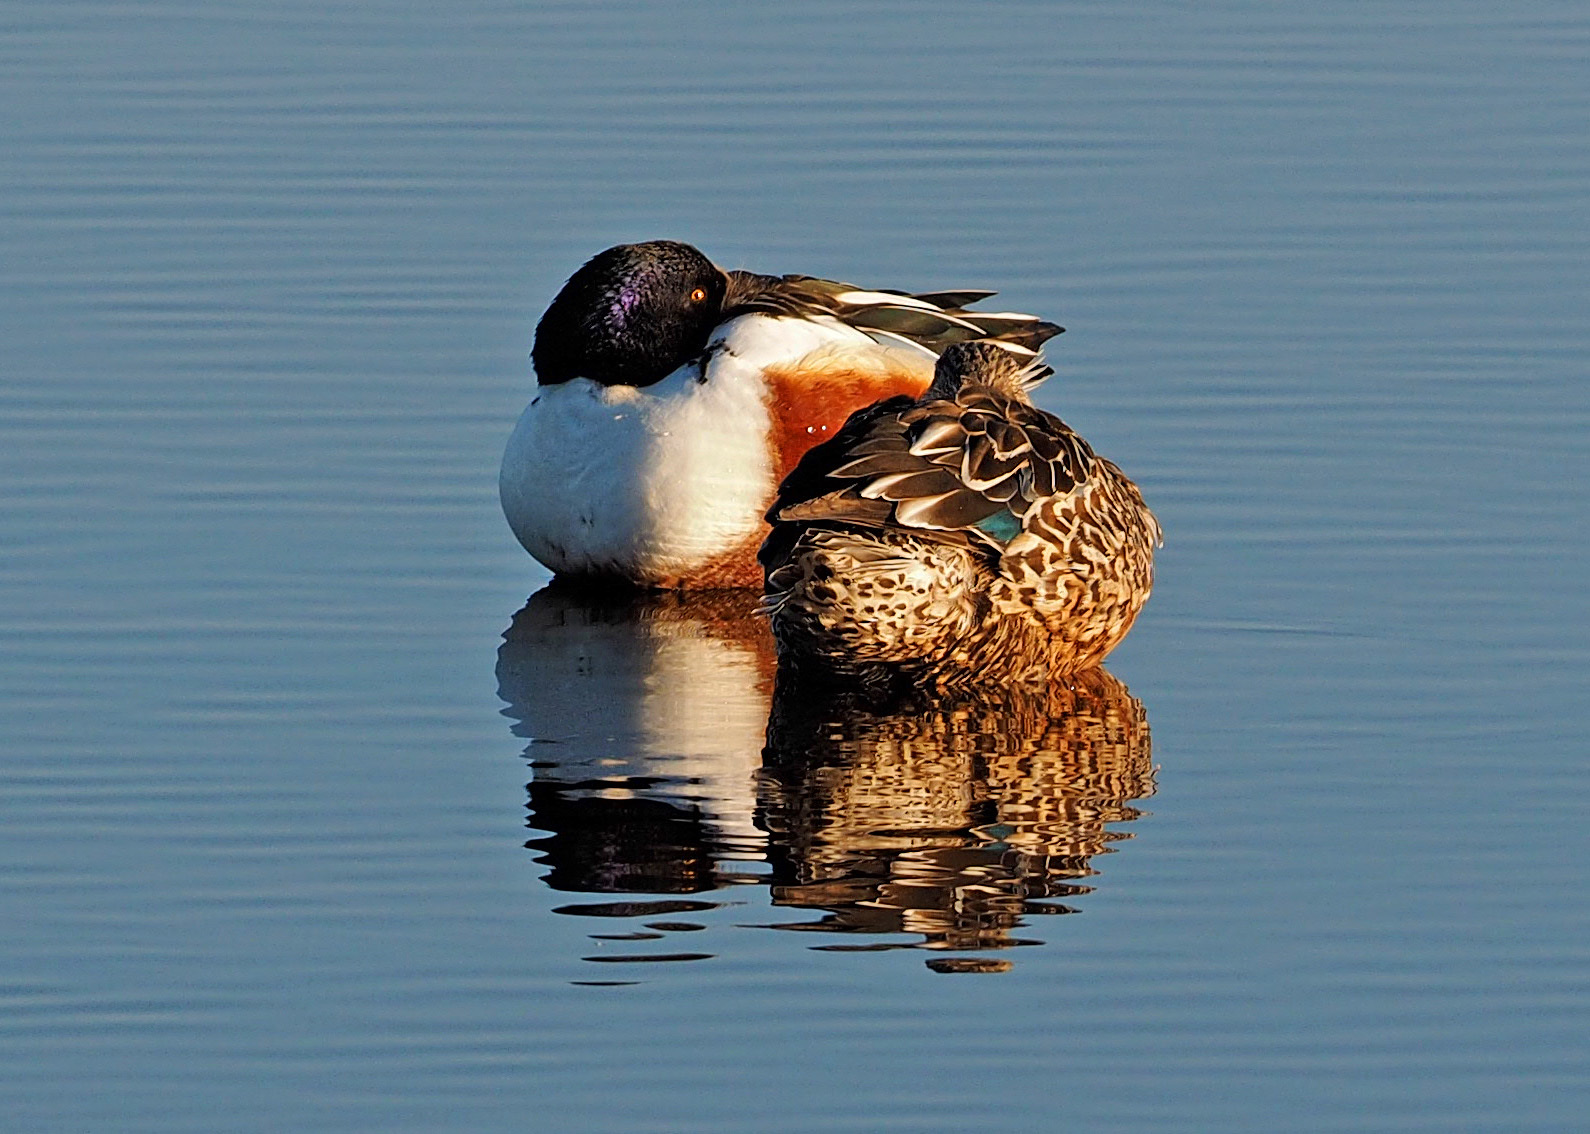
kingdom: Animalia
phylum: Chordata
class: Aves
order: Anseriformes
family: Anatidae
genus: Spatula
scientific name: Spatula clypeata
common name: Northern shoveler
